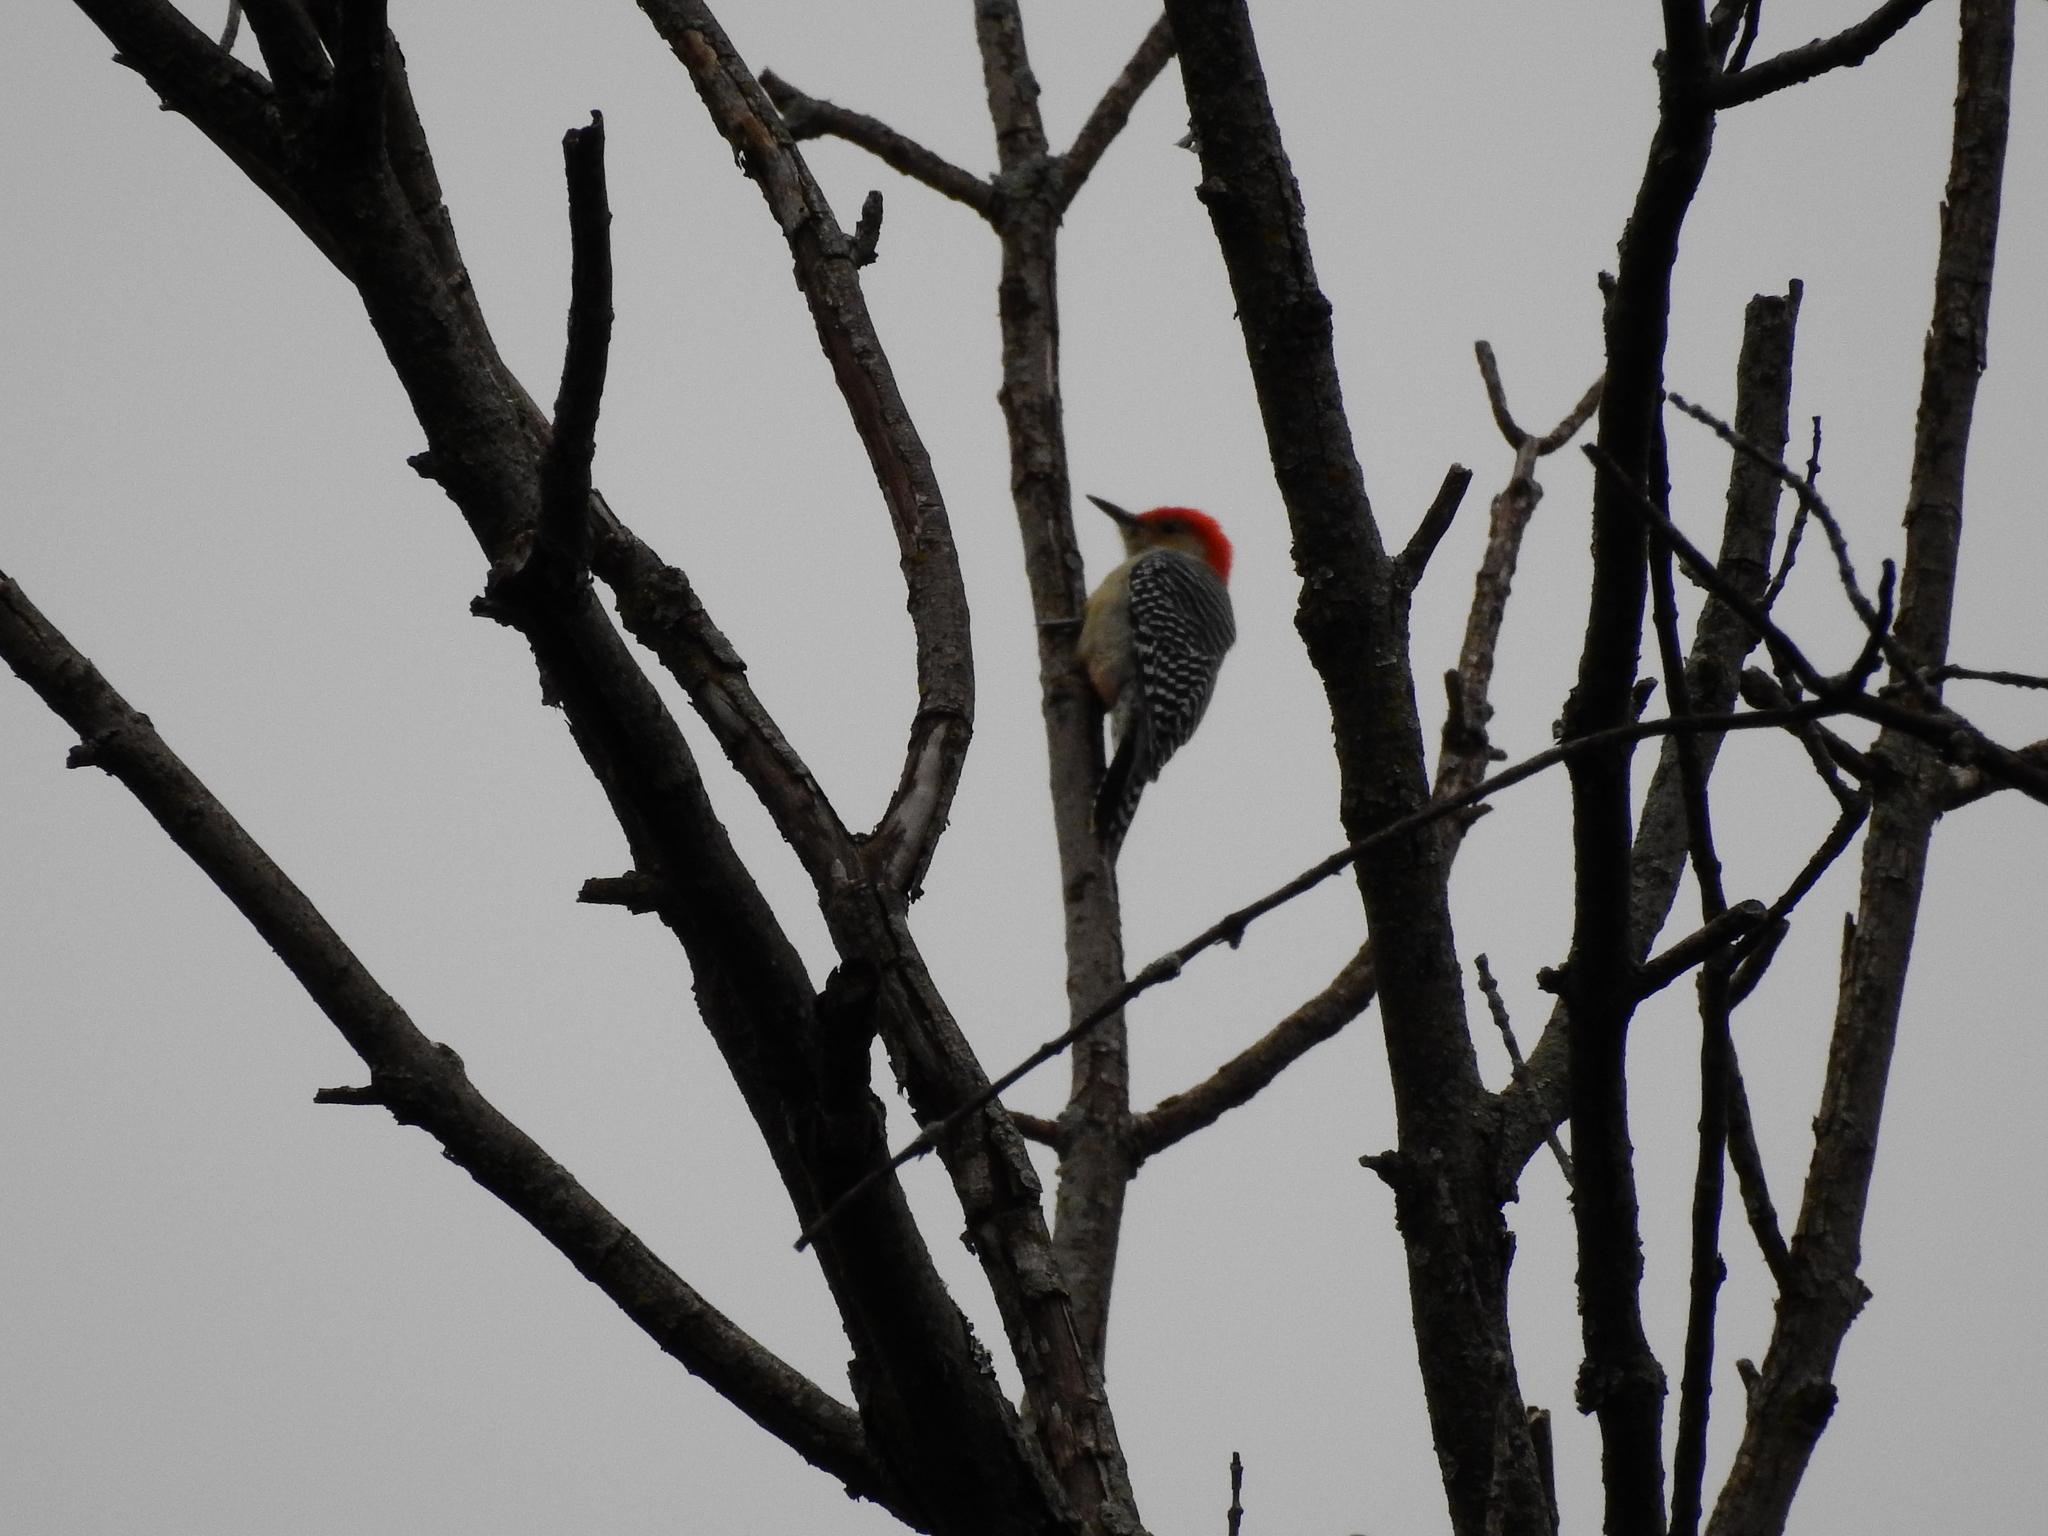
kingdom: Animalia
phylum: Chordata
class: Aves
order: Piciformes
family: Picidae
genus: Melanerpes
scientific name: Melanerpes carolinus
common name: Red-bellied woodpecker
